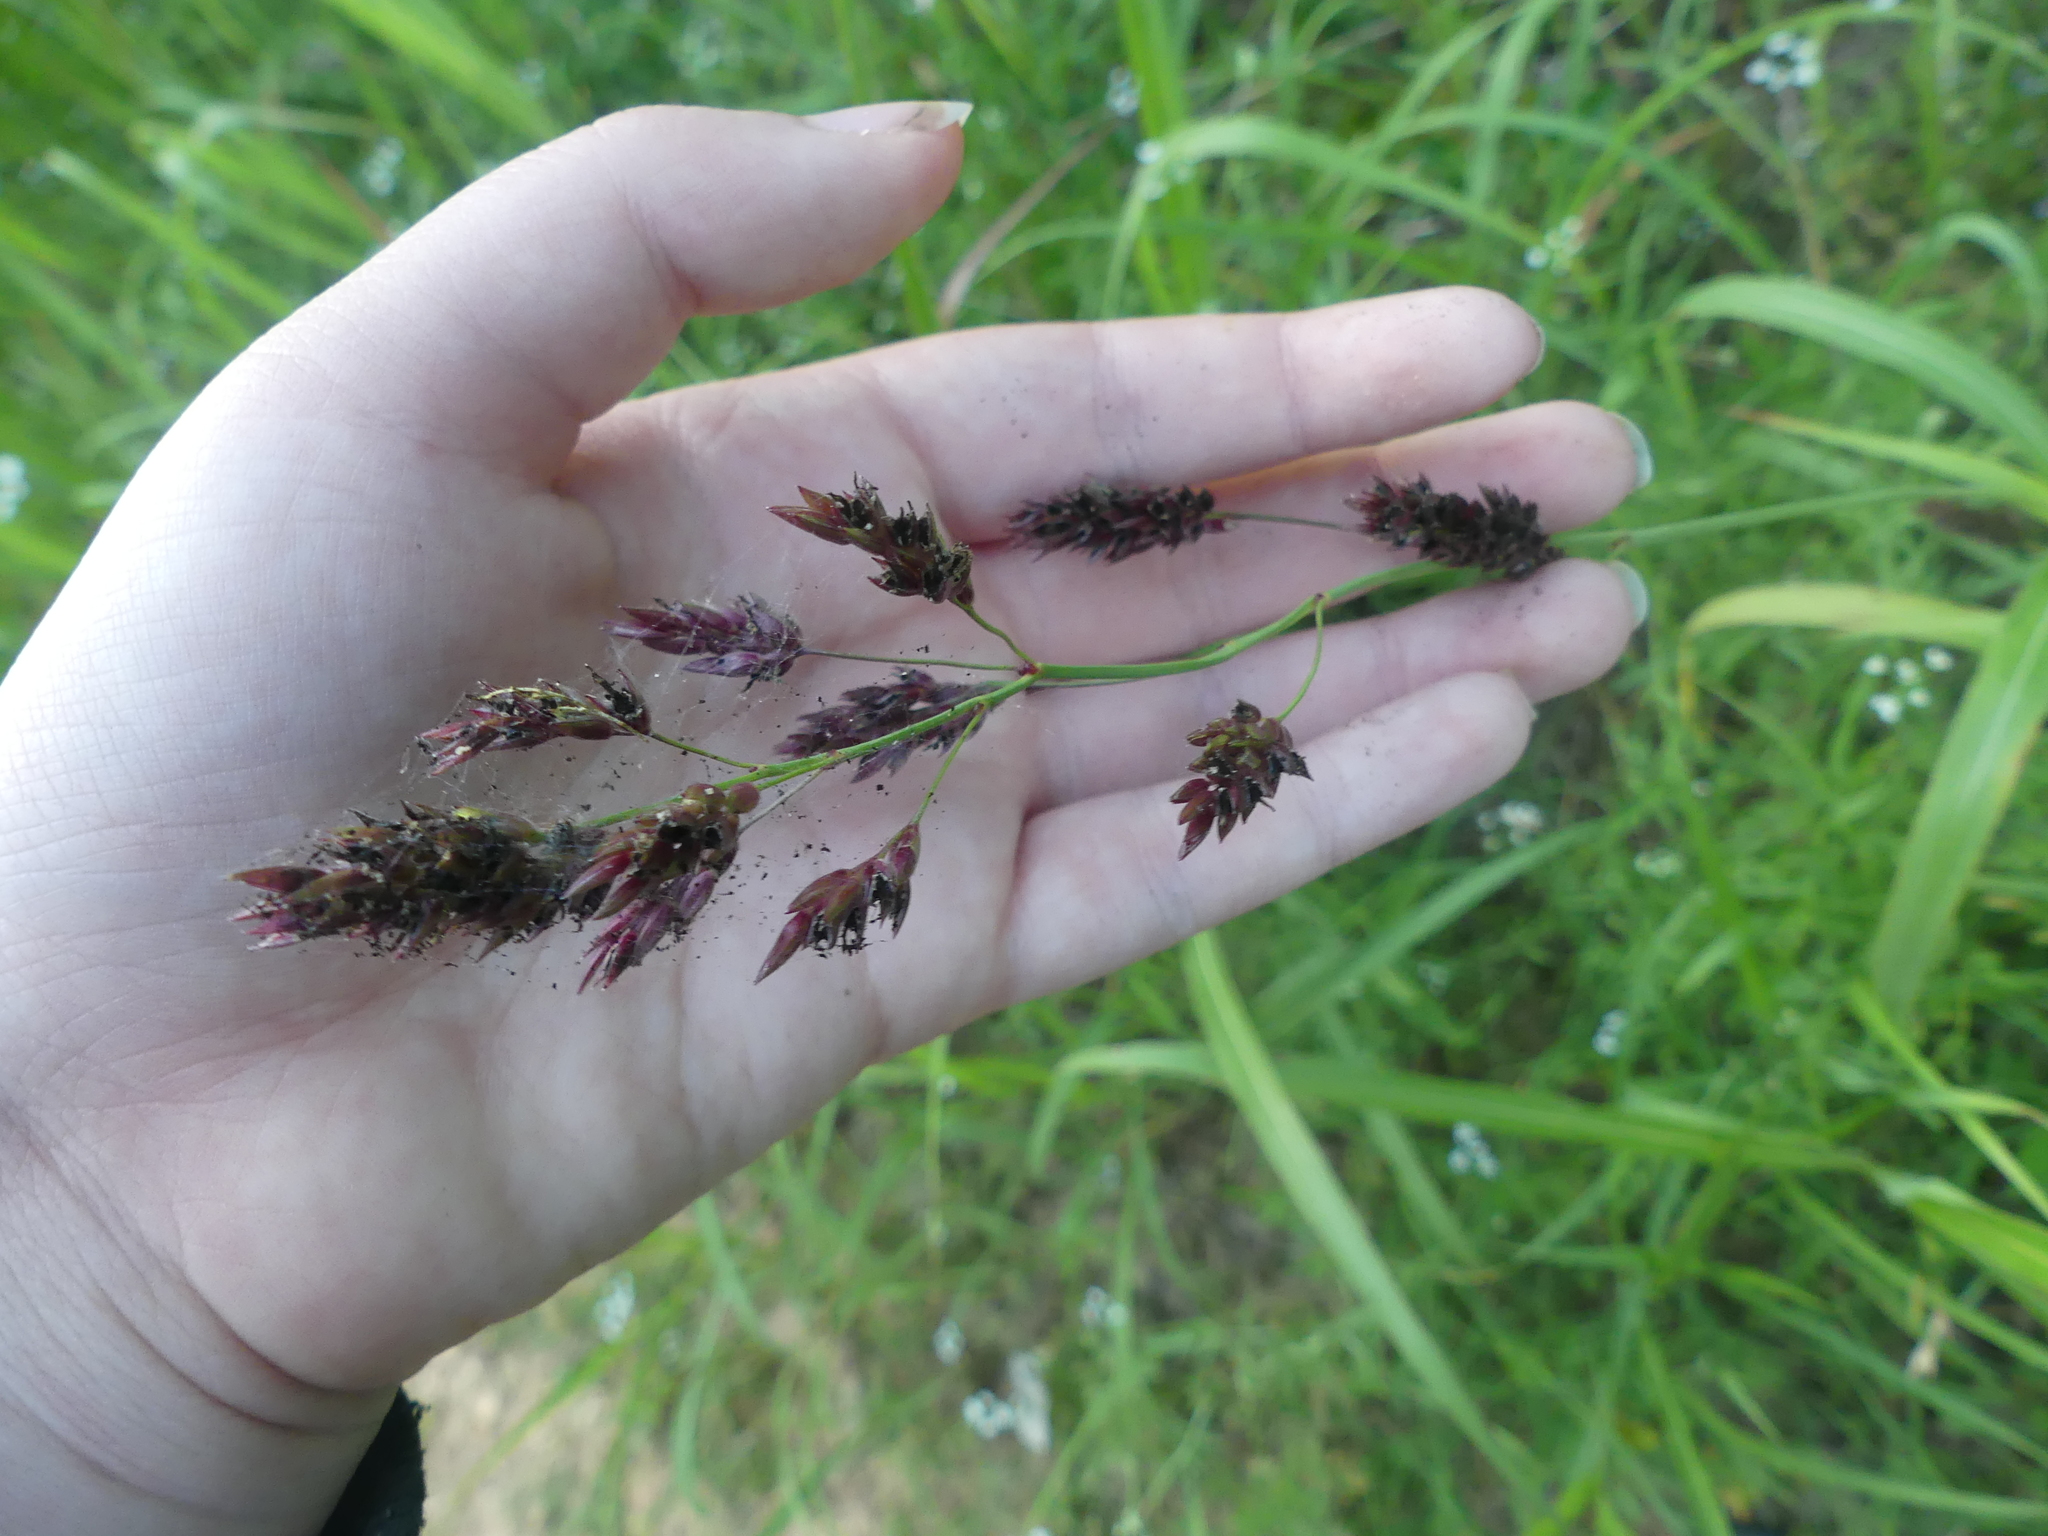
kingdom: Plantae
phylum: Tracheophyta
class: Liliopsida
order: Poales
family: Poaceae
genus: Sorghum
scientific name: Sorghum halepense
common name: Johnson-grass
